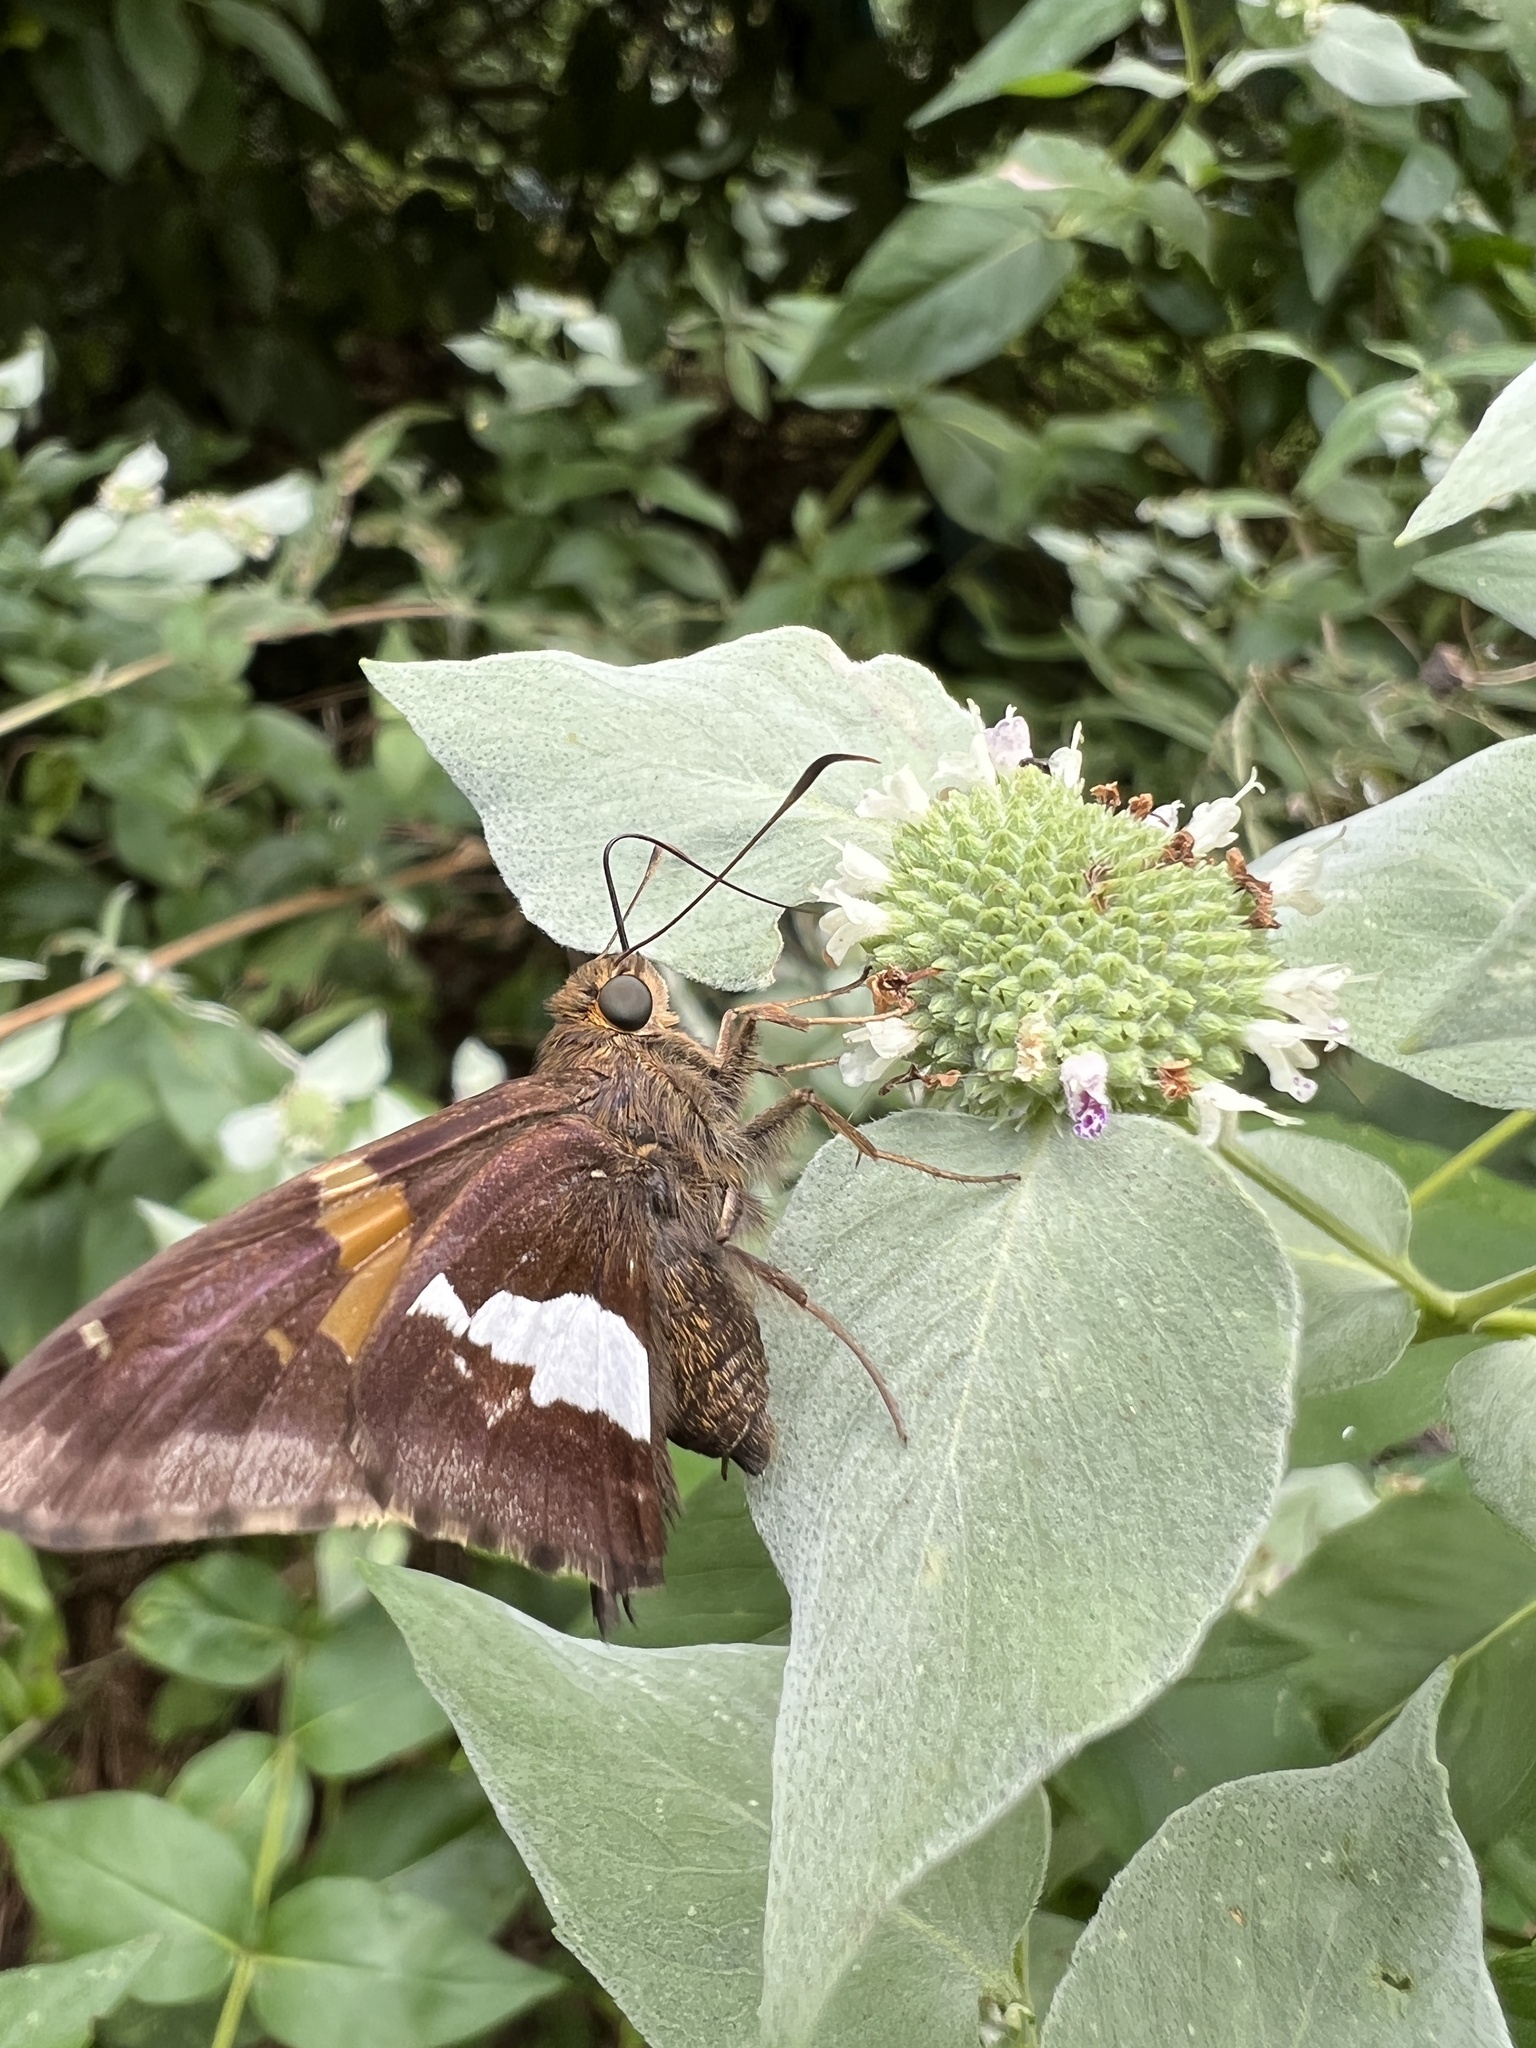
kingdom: Animalia
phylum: Arthropoda
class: Insecta
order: Lepidoptera
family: Hesperiidae
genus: Epargyreus
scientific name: Epargyreus clarus
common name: Silver-spotted skipper
